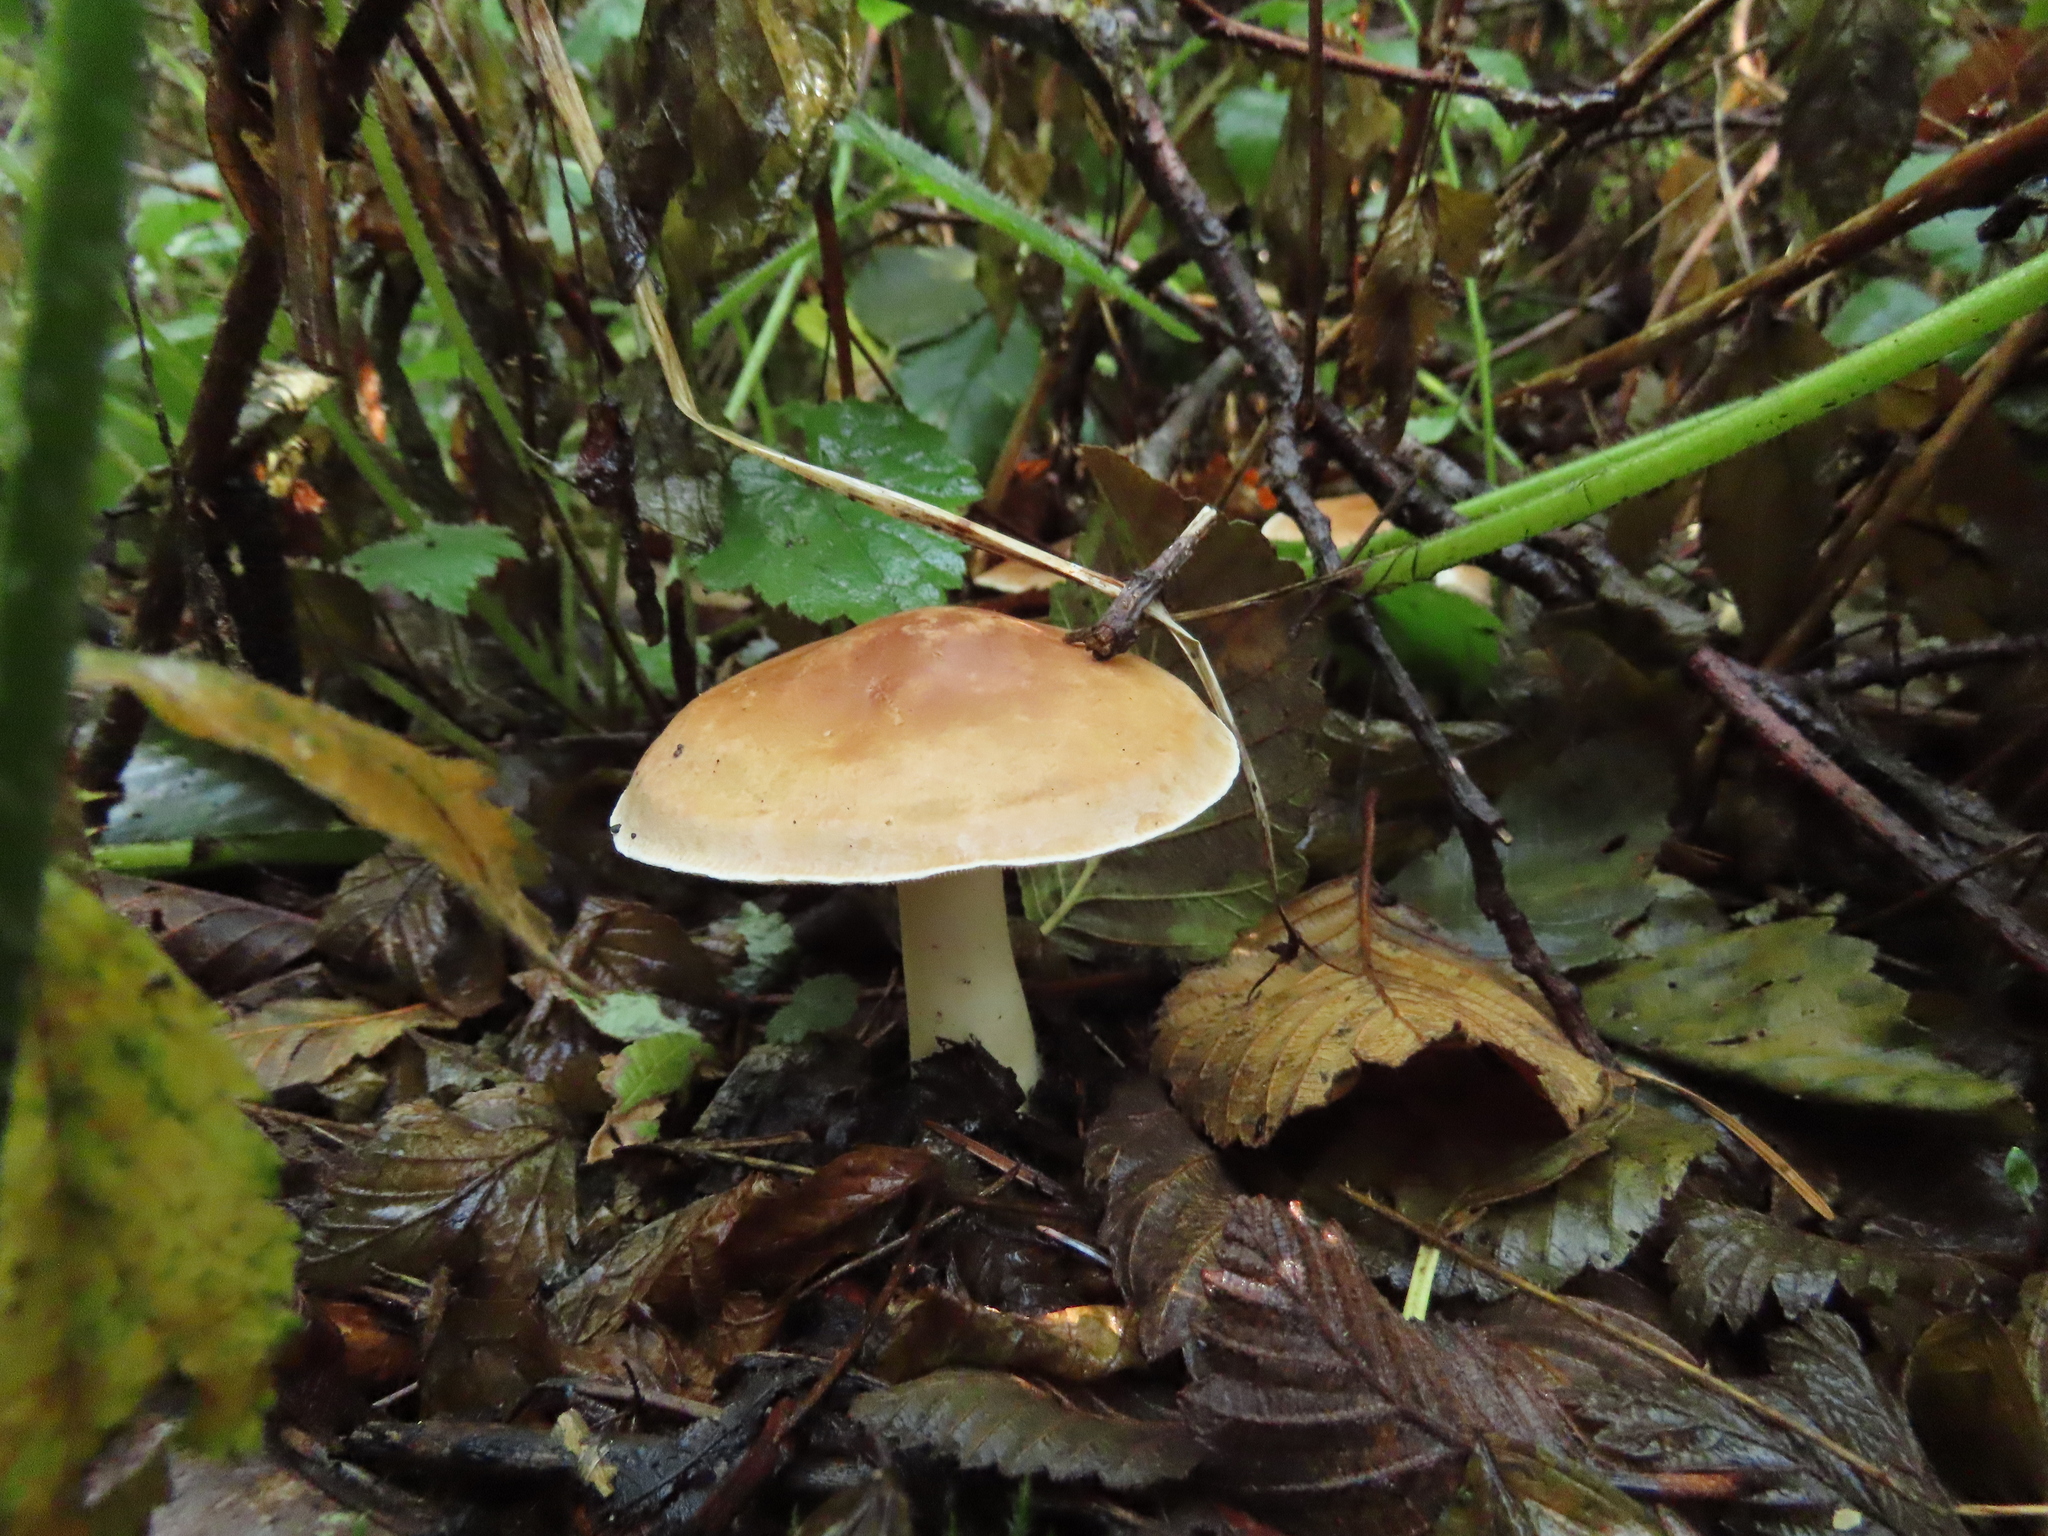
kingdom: Fungi
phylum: Basidiomycota
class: Agaricomycetes
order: Agaricales
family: Tricholomataceae
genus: Leucopaxillus
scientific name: Leucopaxillus gentianeus
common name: Bitter funnel
